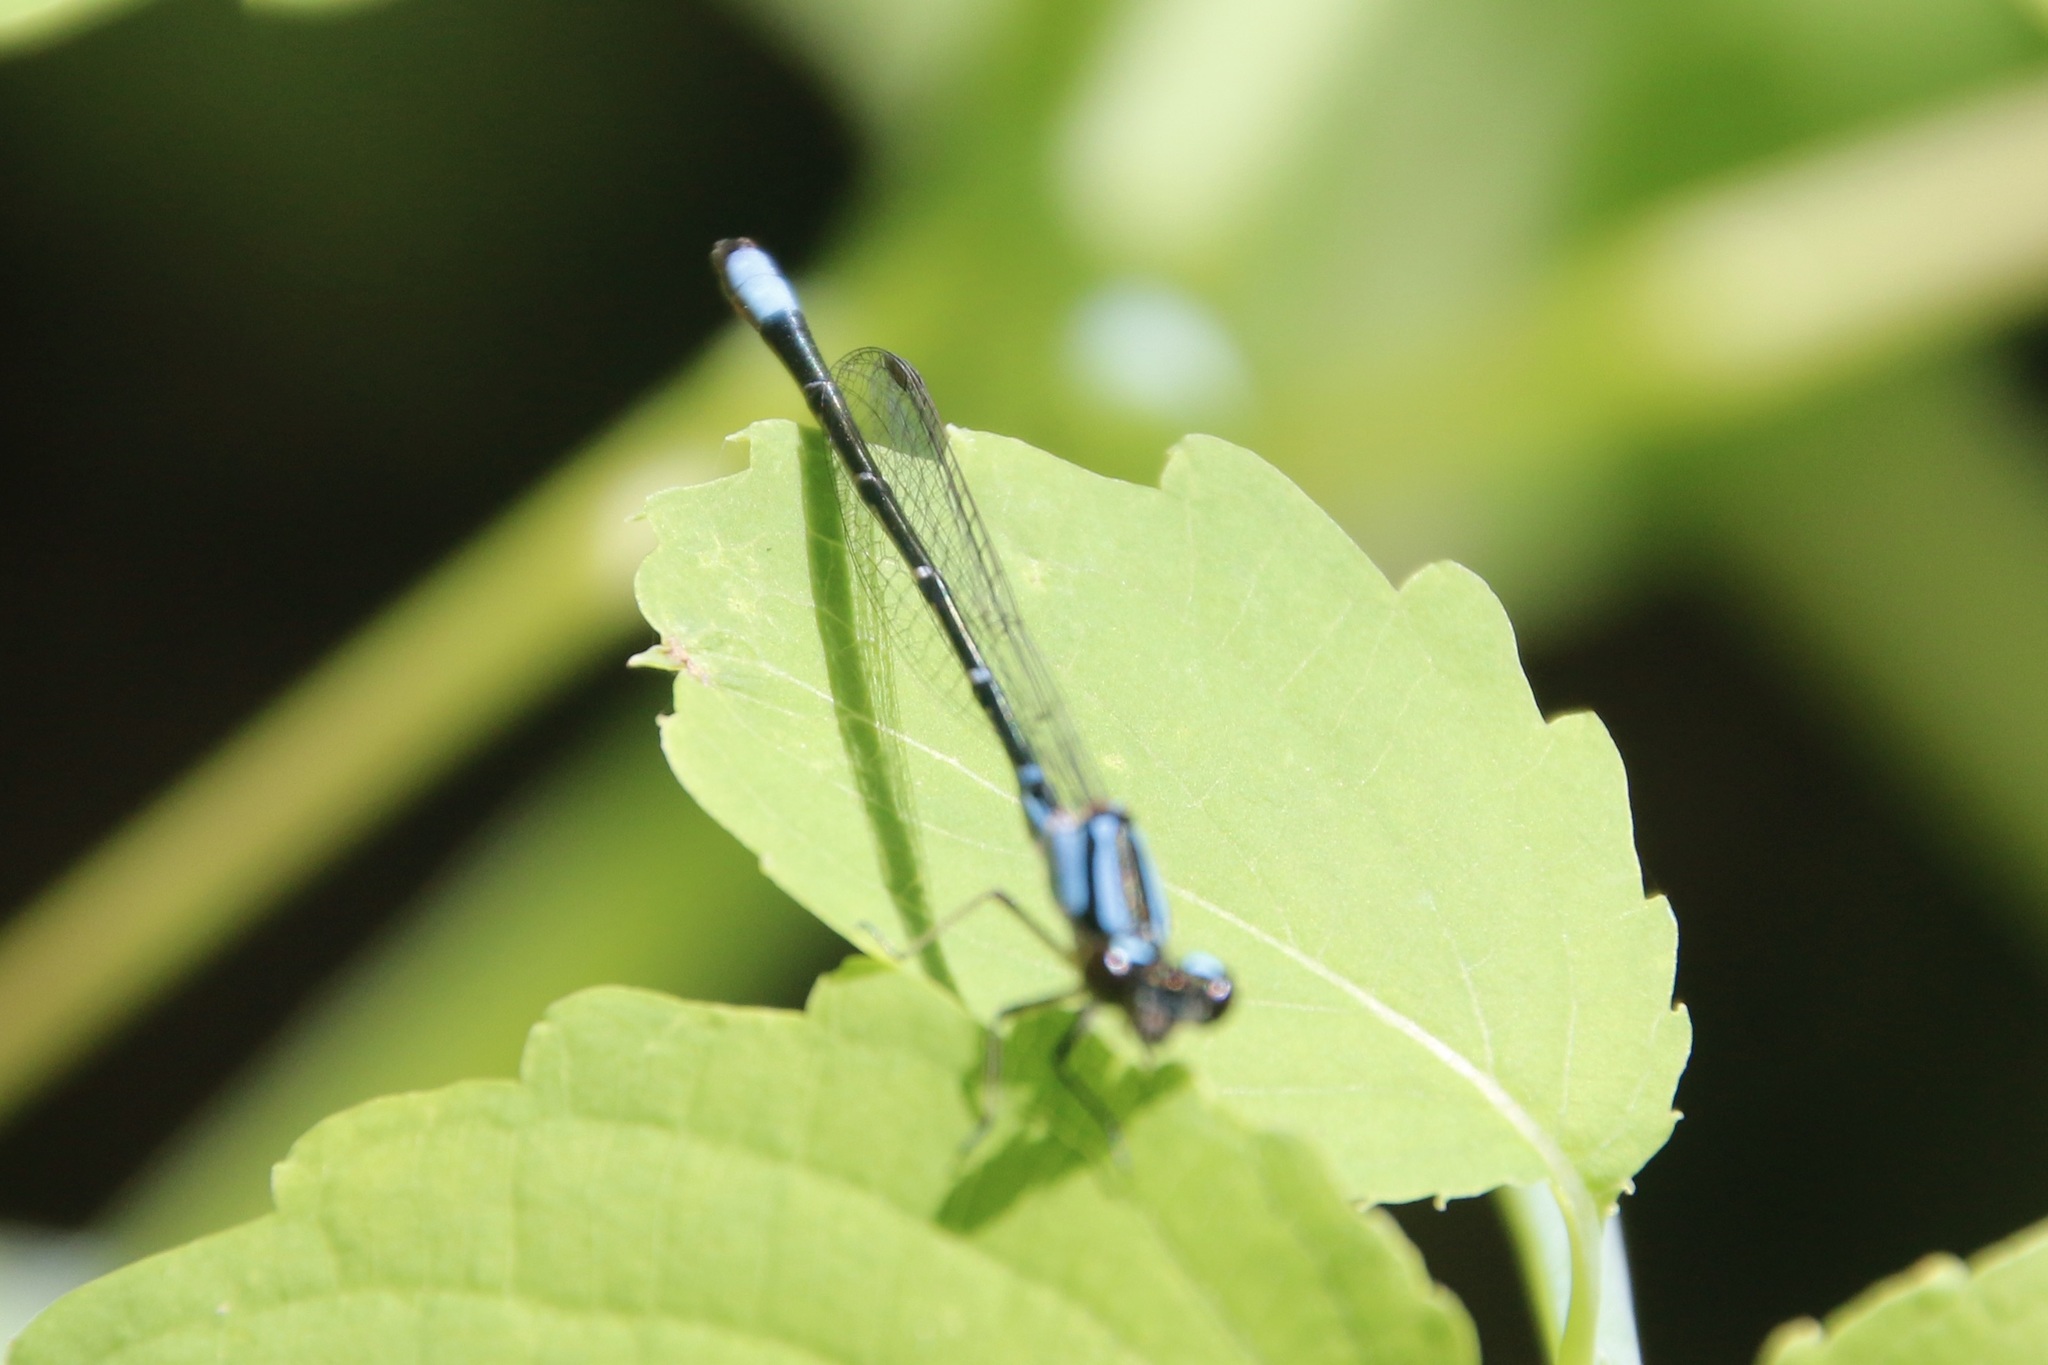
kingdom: Animalia
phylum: Arthropoda
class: Insecta
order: Odonata
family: Coenagrionidae
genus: Enallagma
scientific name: Enallagma geminatum
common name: Skimming bluet
